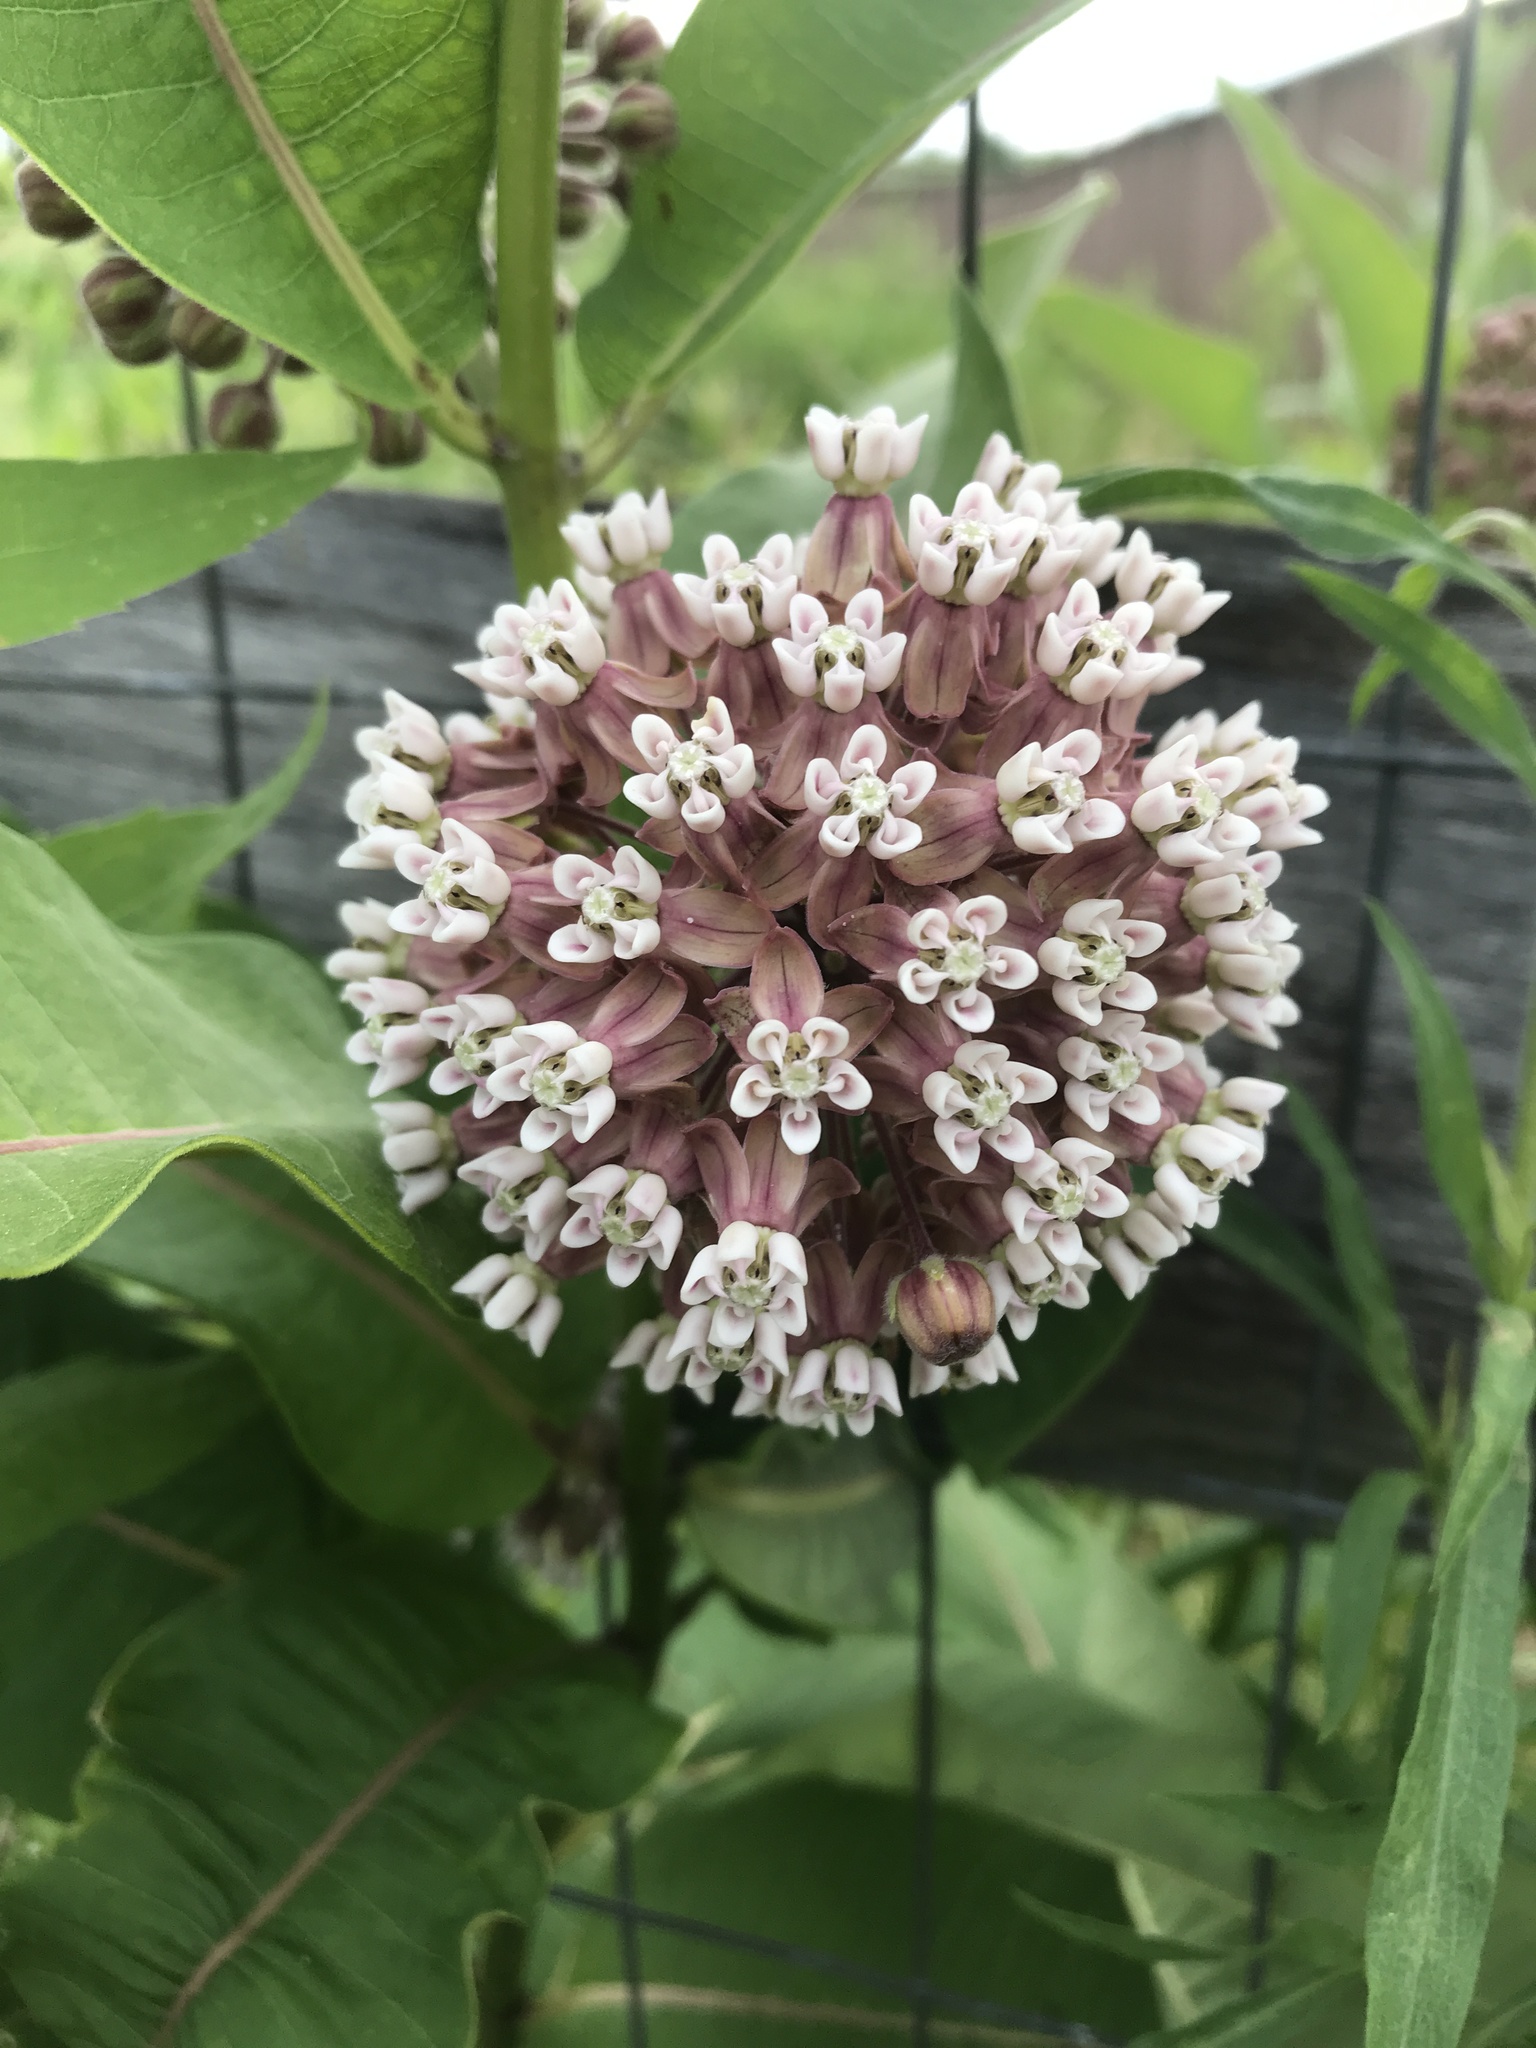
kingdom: Plantae
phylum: Tracheophyta
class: Magnoliopsida
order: Gentianales
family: Apocynaceae
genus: Asclepias
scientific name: Asclepias syriaca
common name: Common milkweed
